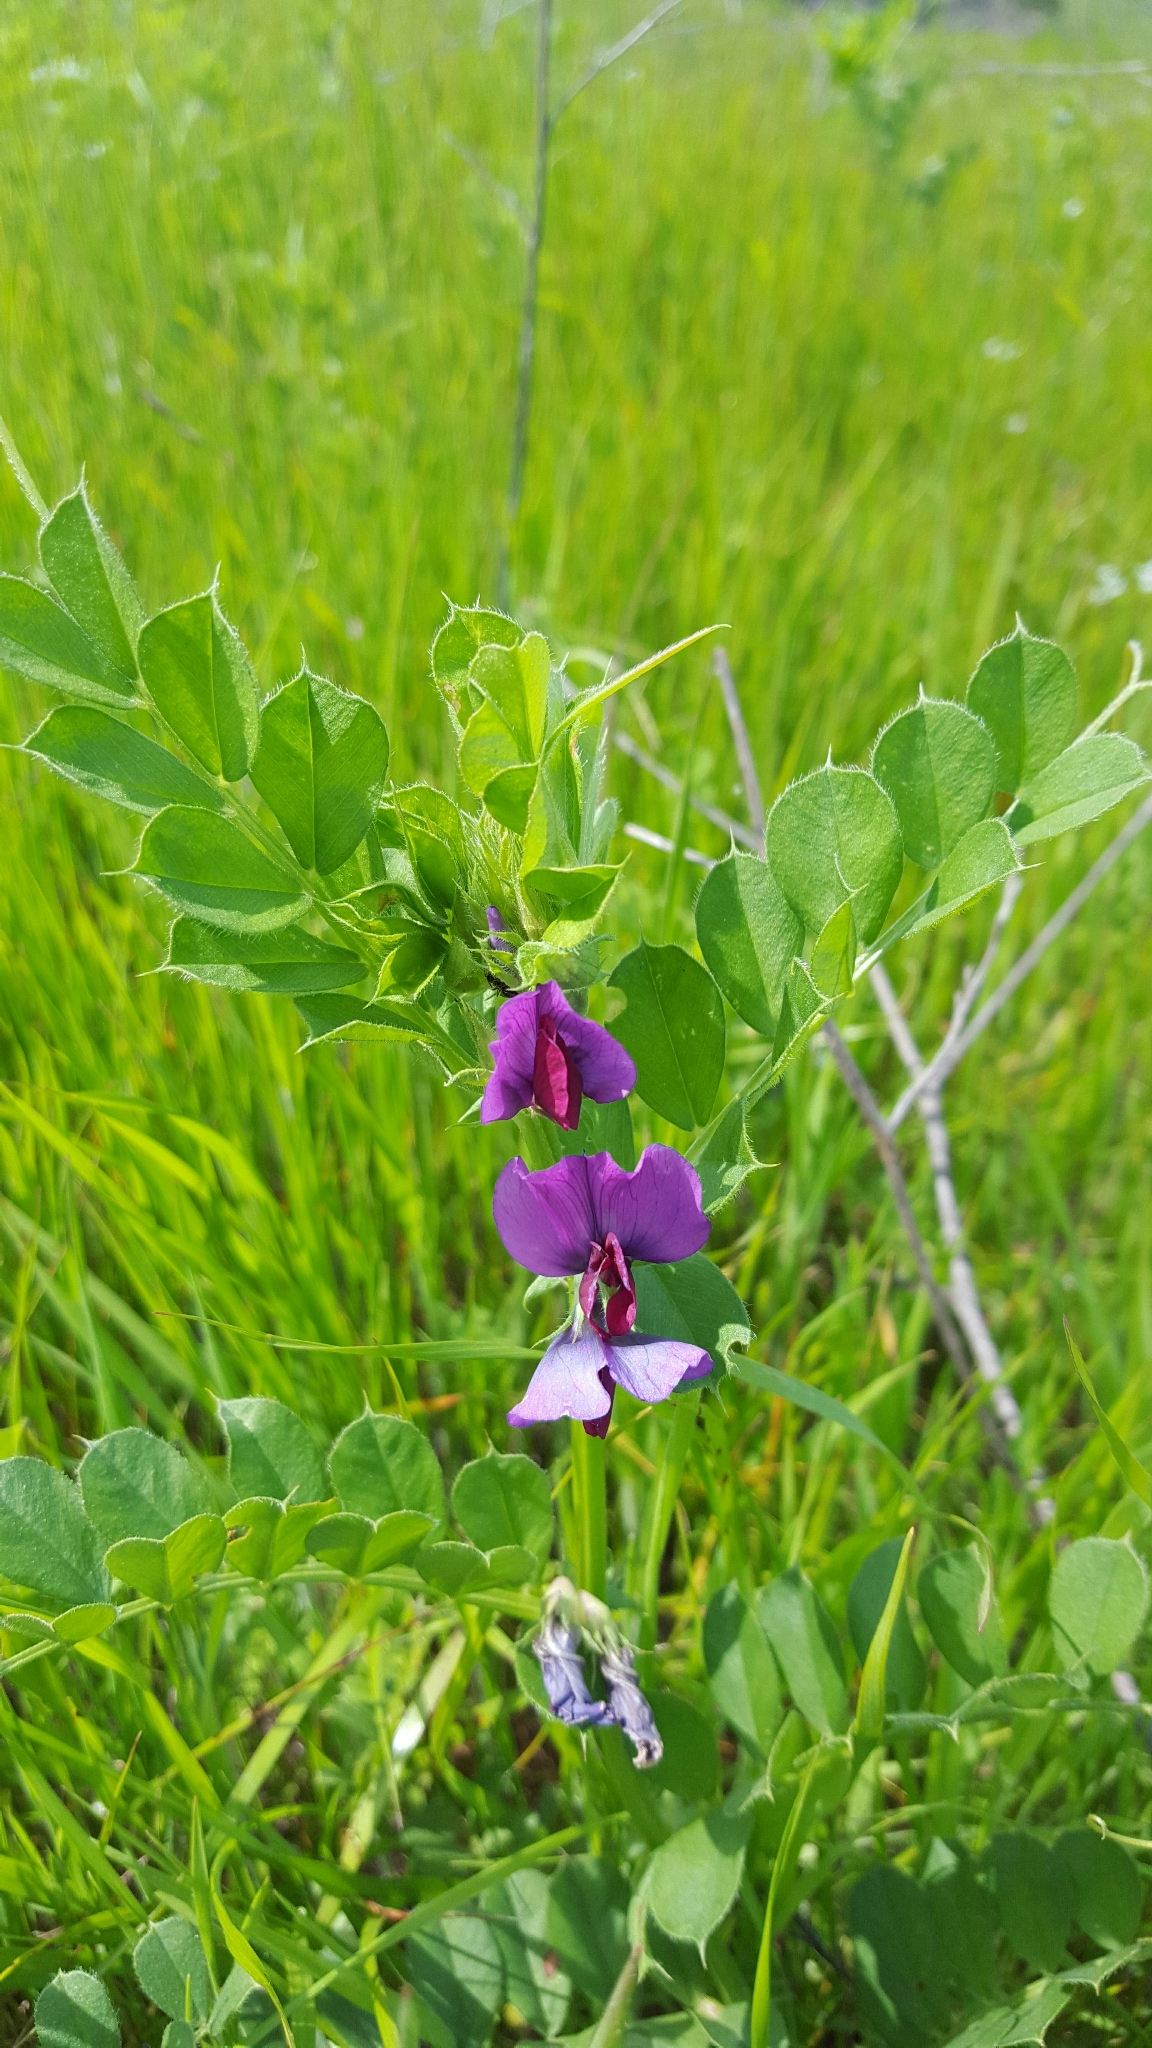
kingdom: Plantae
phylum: Tracheophyta
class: Magnoliopsida
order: Fabales
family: Fabaceae
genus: Vicia
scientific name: Vicia sativa
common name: Garden vetch
